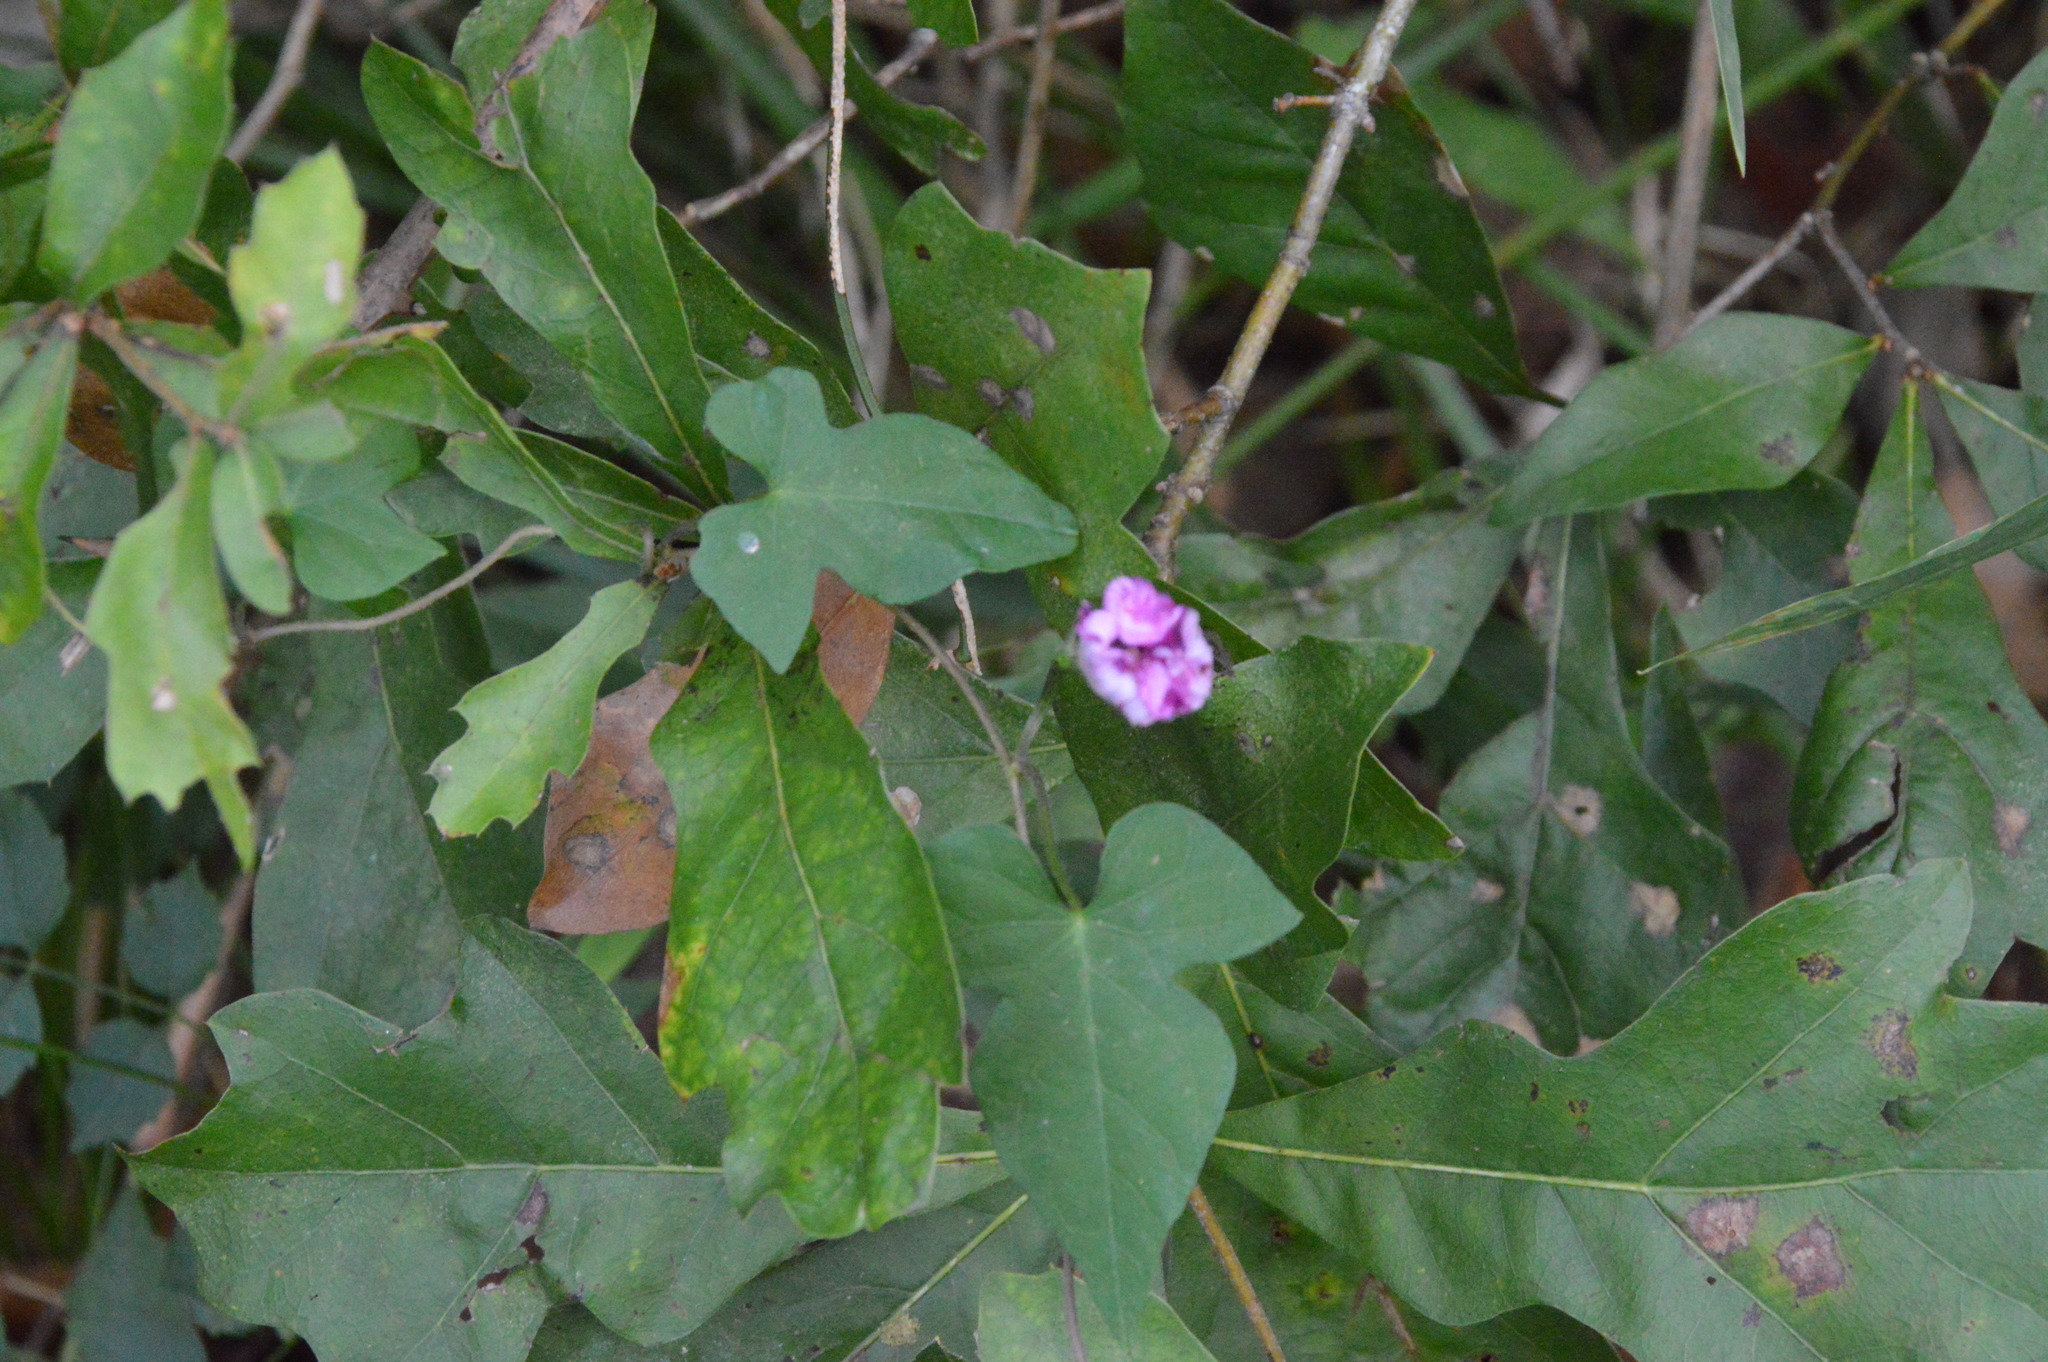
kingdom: Plantae
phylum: Tracheophyta
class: Magnoliopsida
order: Solanales
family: Convolvulaceae
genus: Ipomoea
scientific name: Ipomoea cordatotriloba
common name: Cotton morning glory
